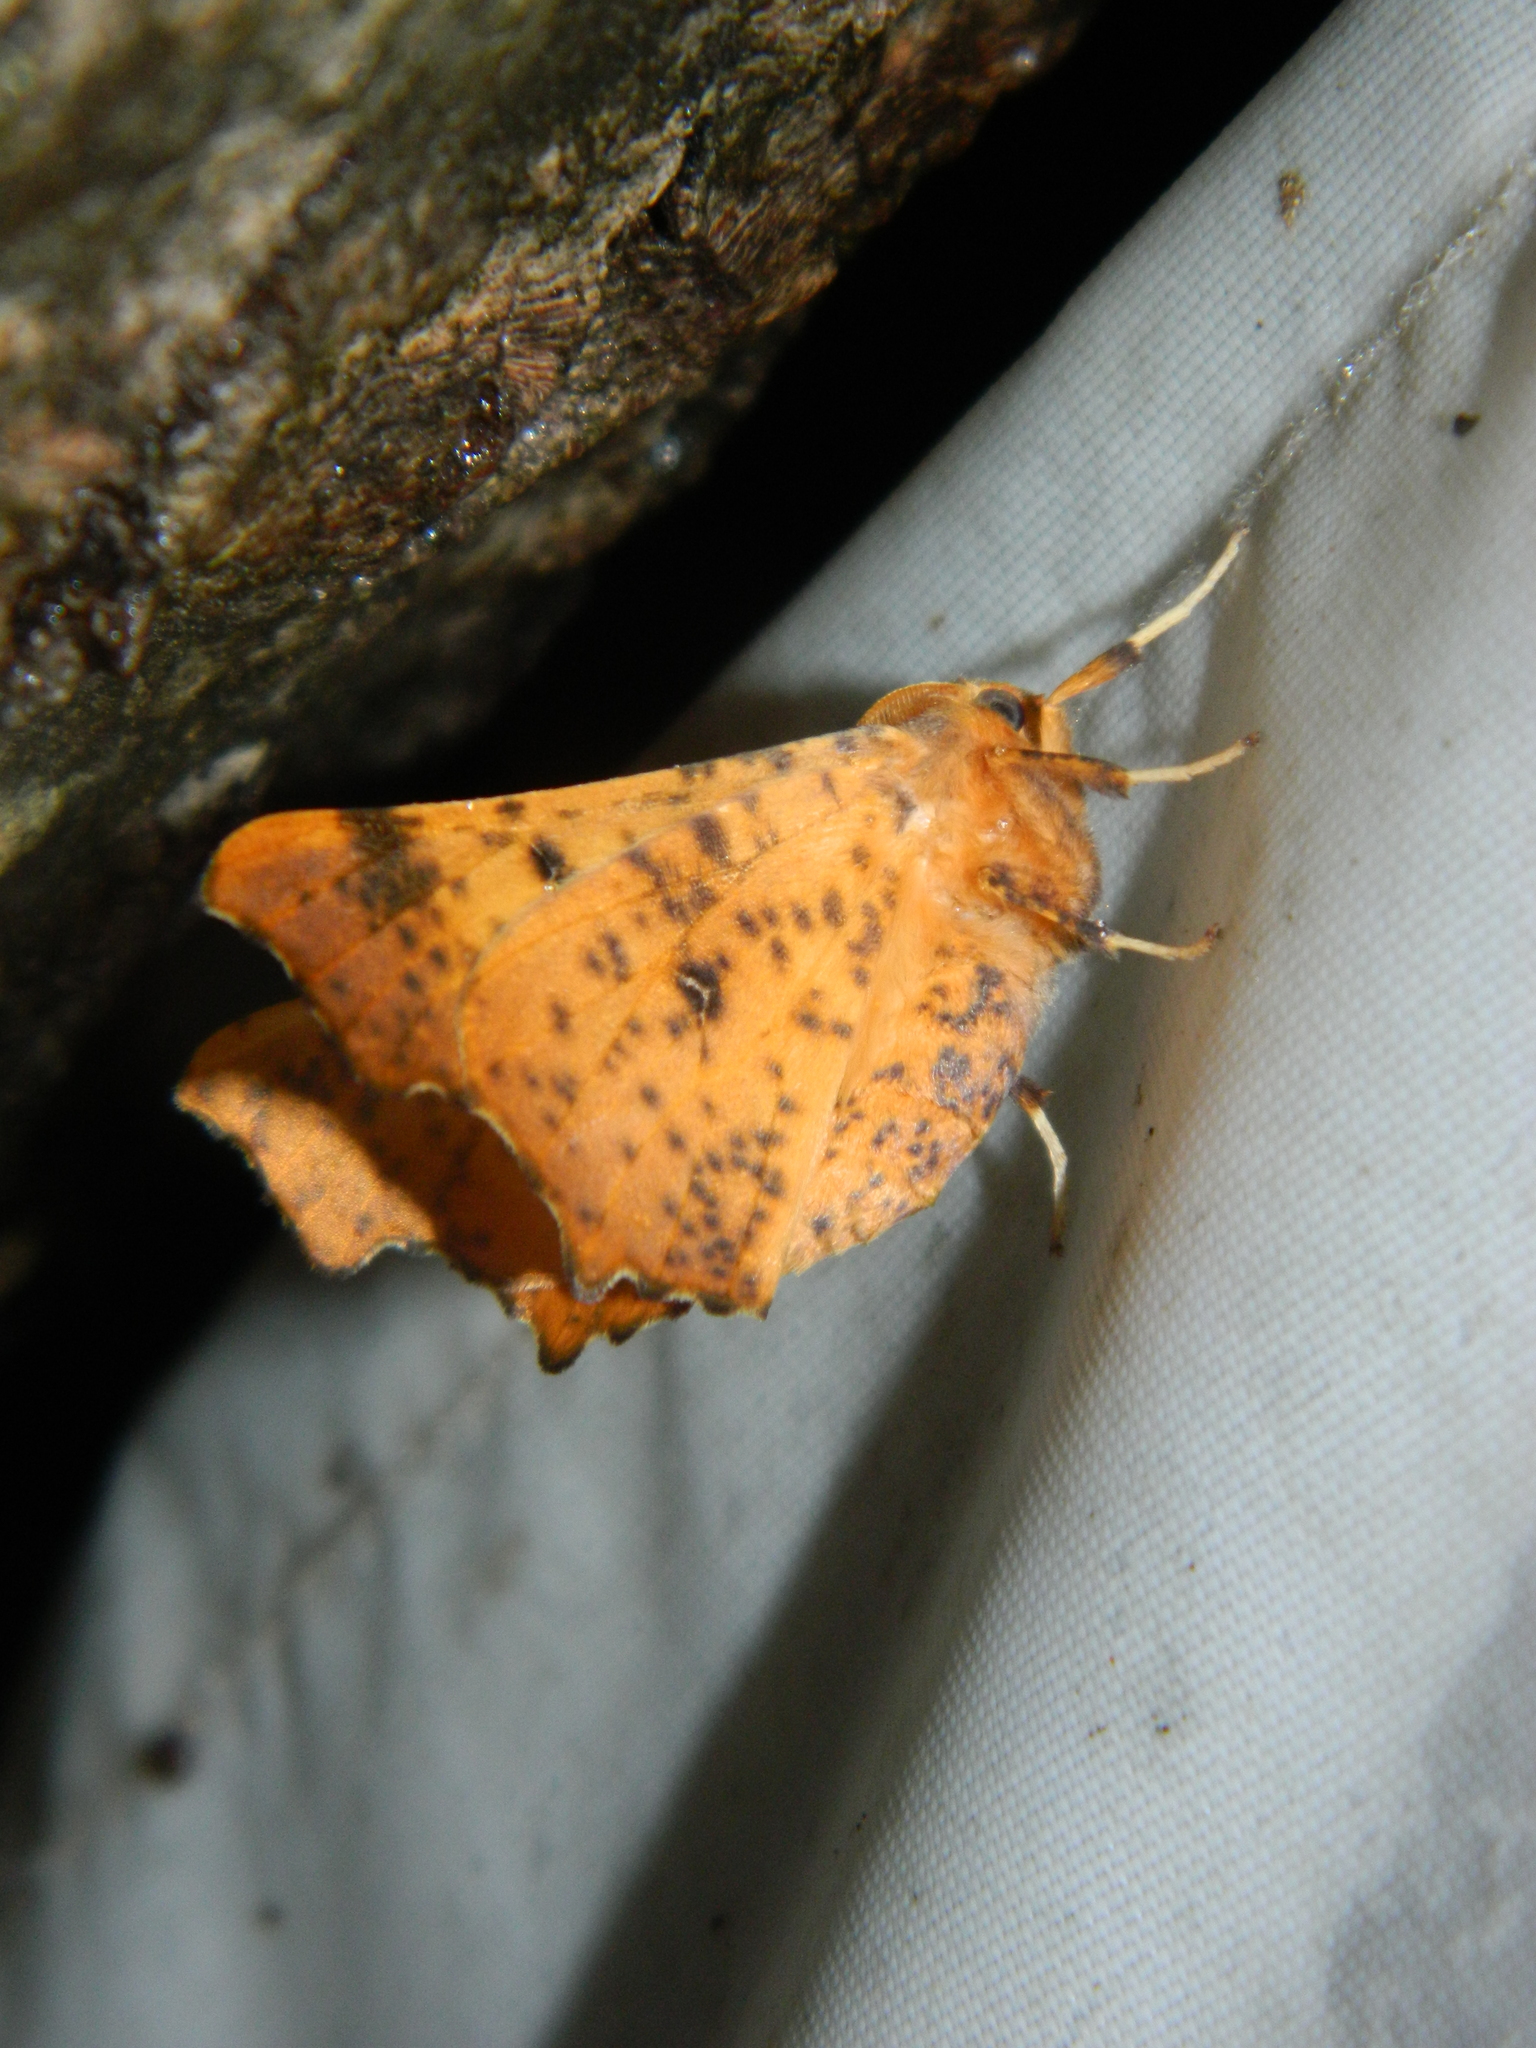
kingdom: Animalia
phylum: Arthropoda
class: Insecta
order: Lepidoptera
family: Geometridae
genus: Ennomos
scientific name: Ennomos magnaria
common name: Maple spanworm
